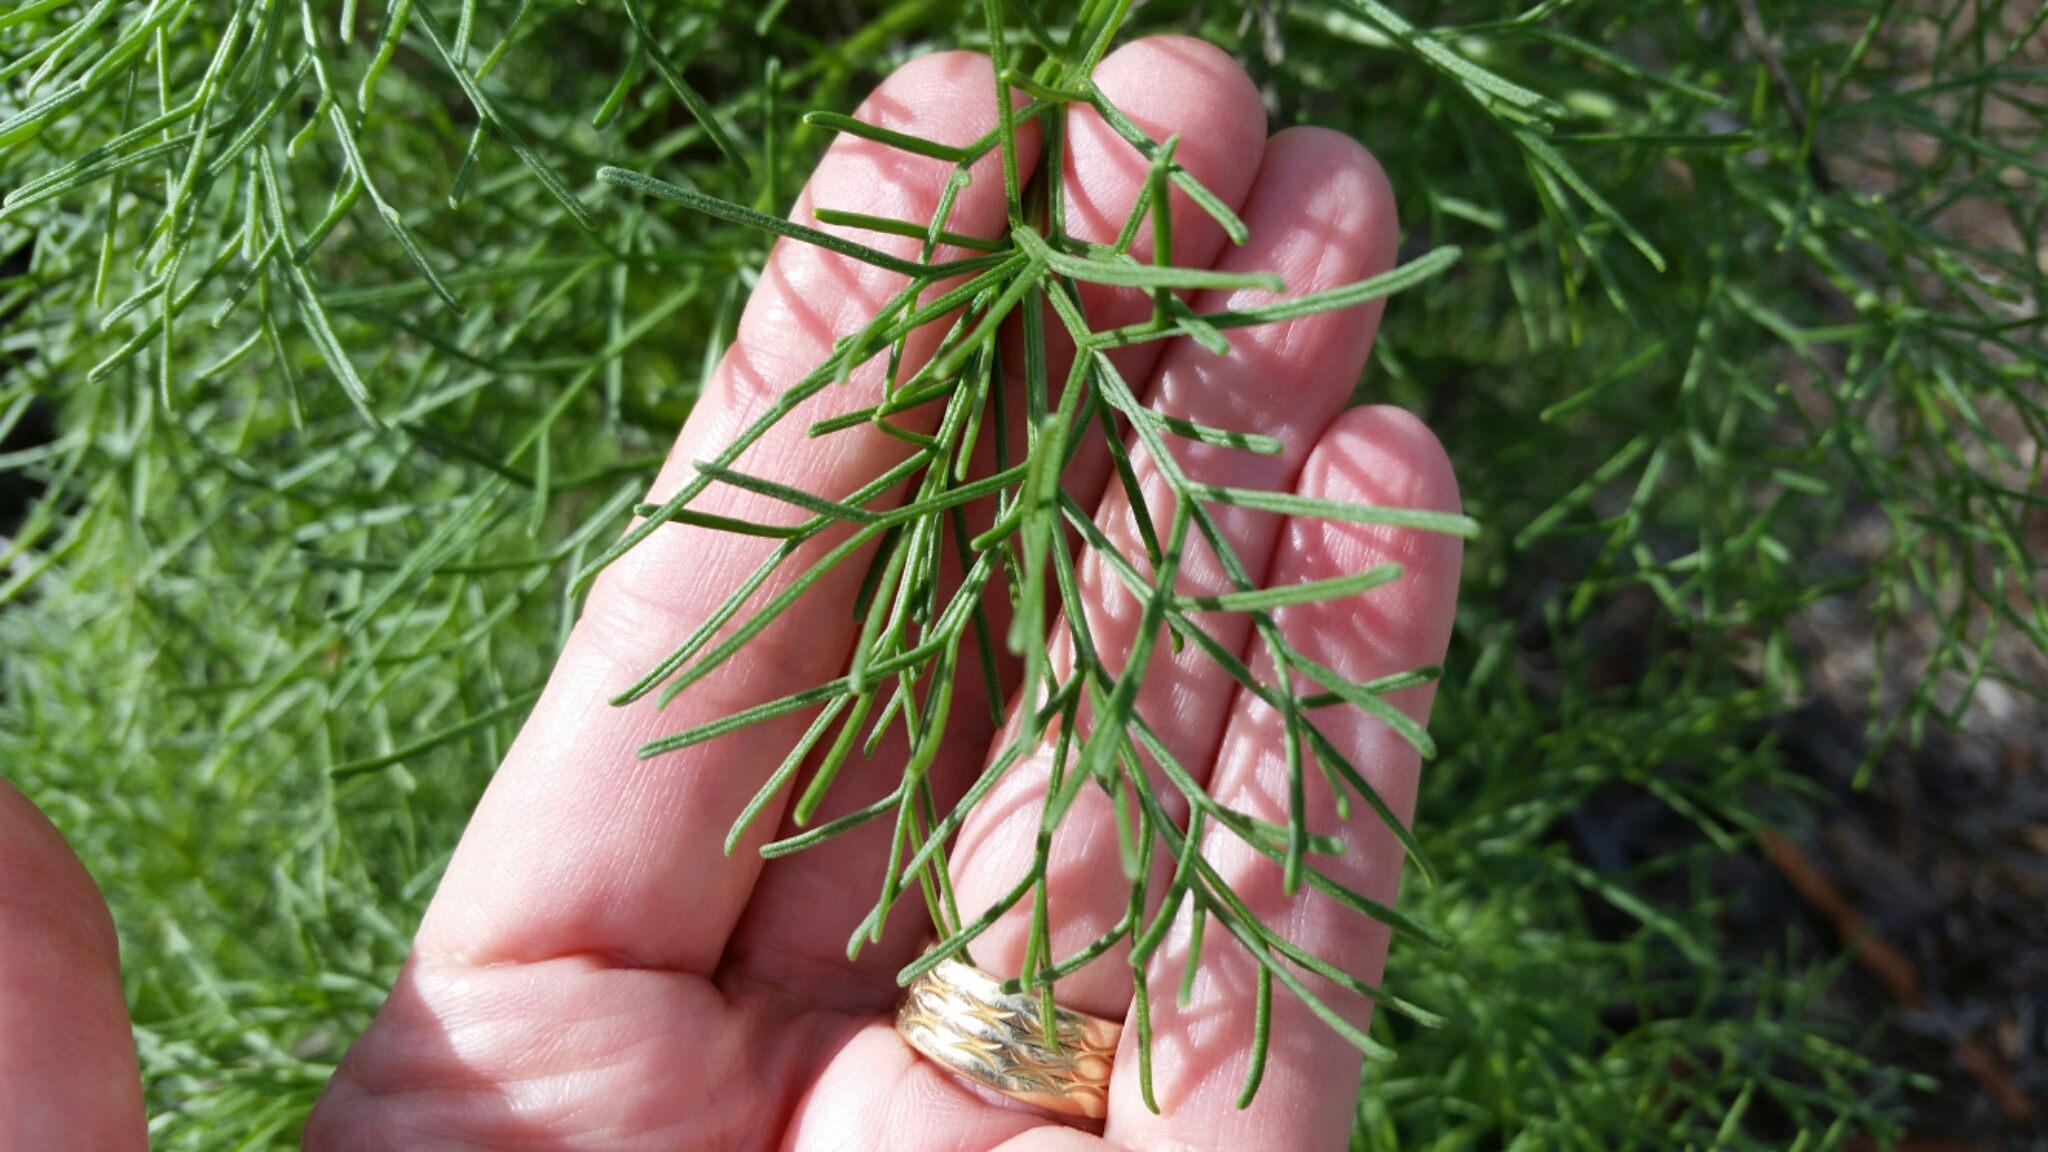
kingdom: Plantae
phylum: Tracheophyta
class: Magnoliopsida
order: Asterales
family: Asteraceae
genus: Coreopsis
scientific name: Coreopsis gigantea
